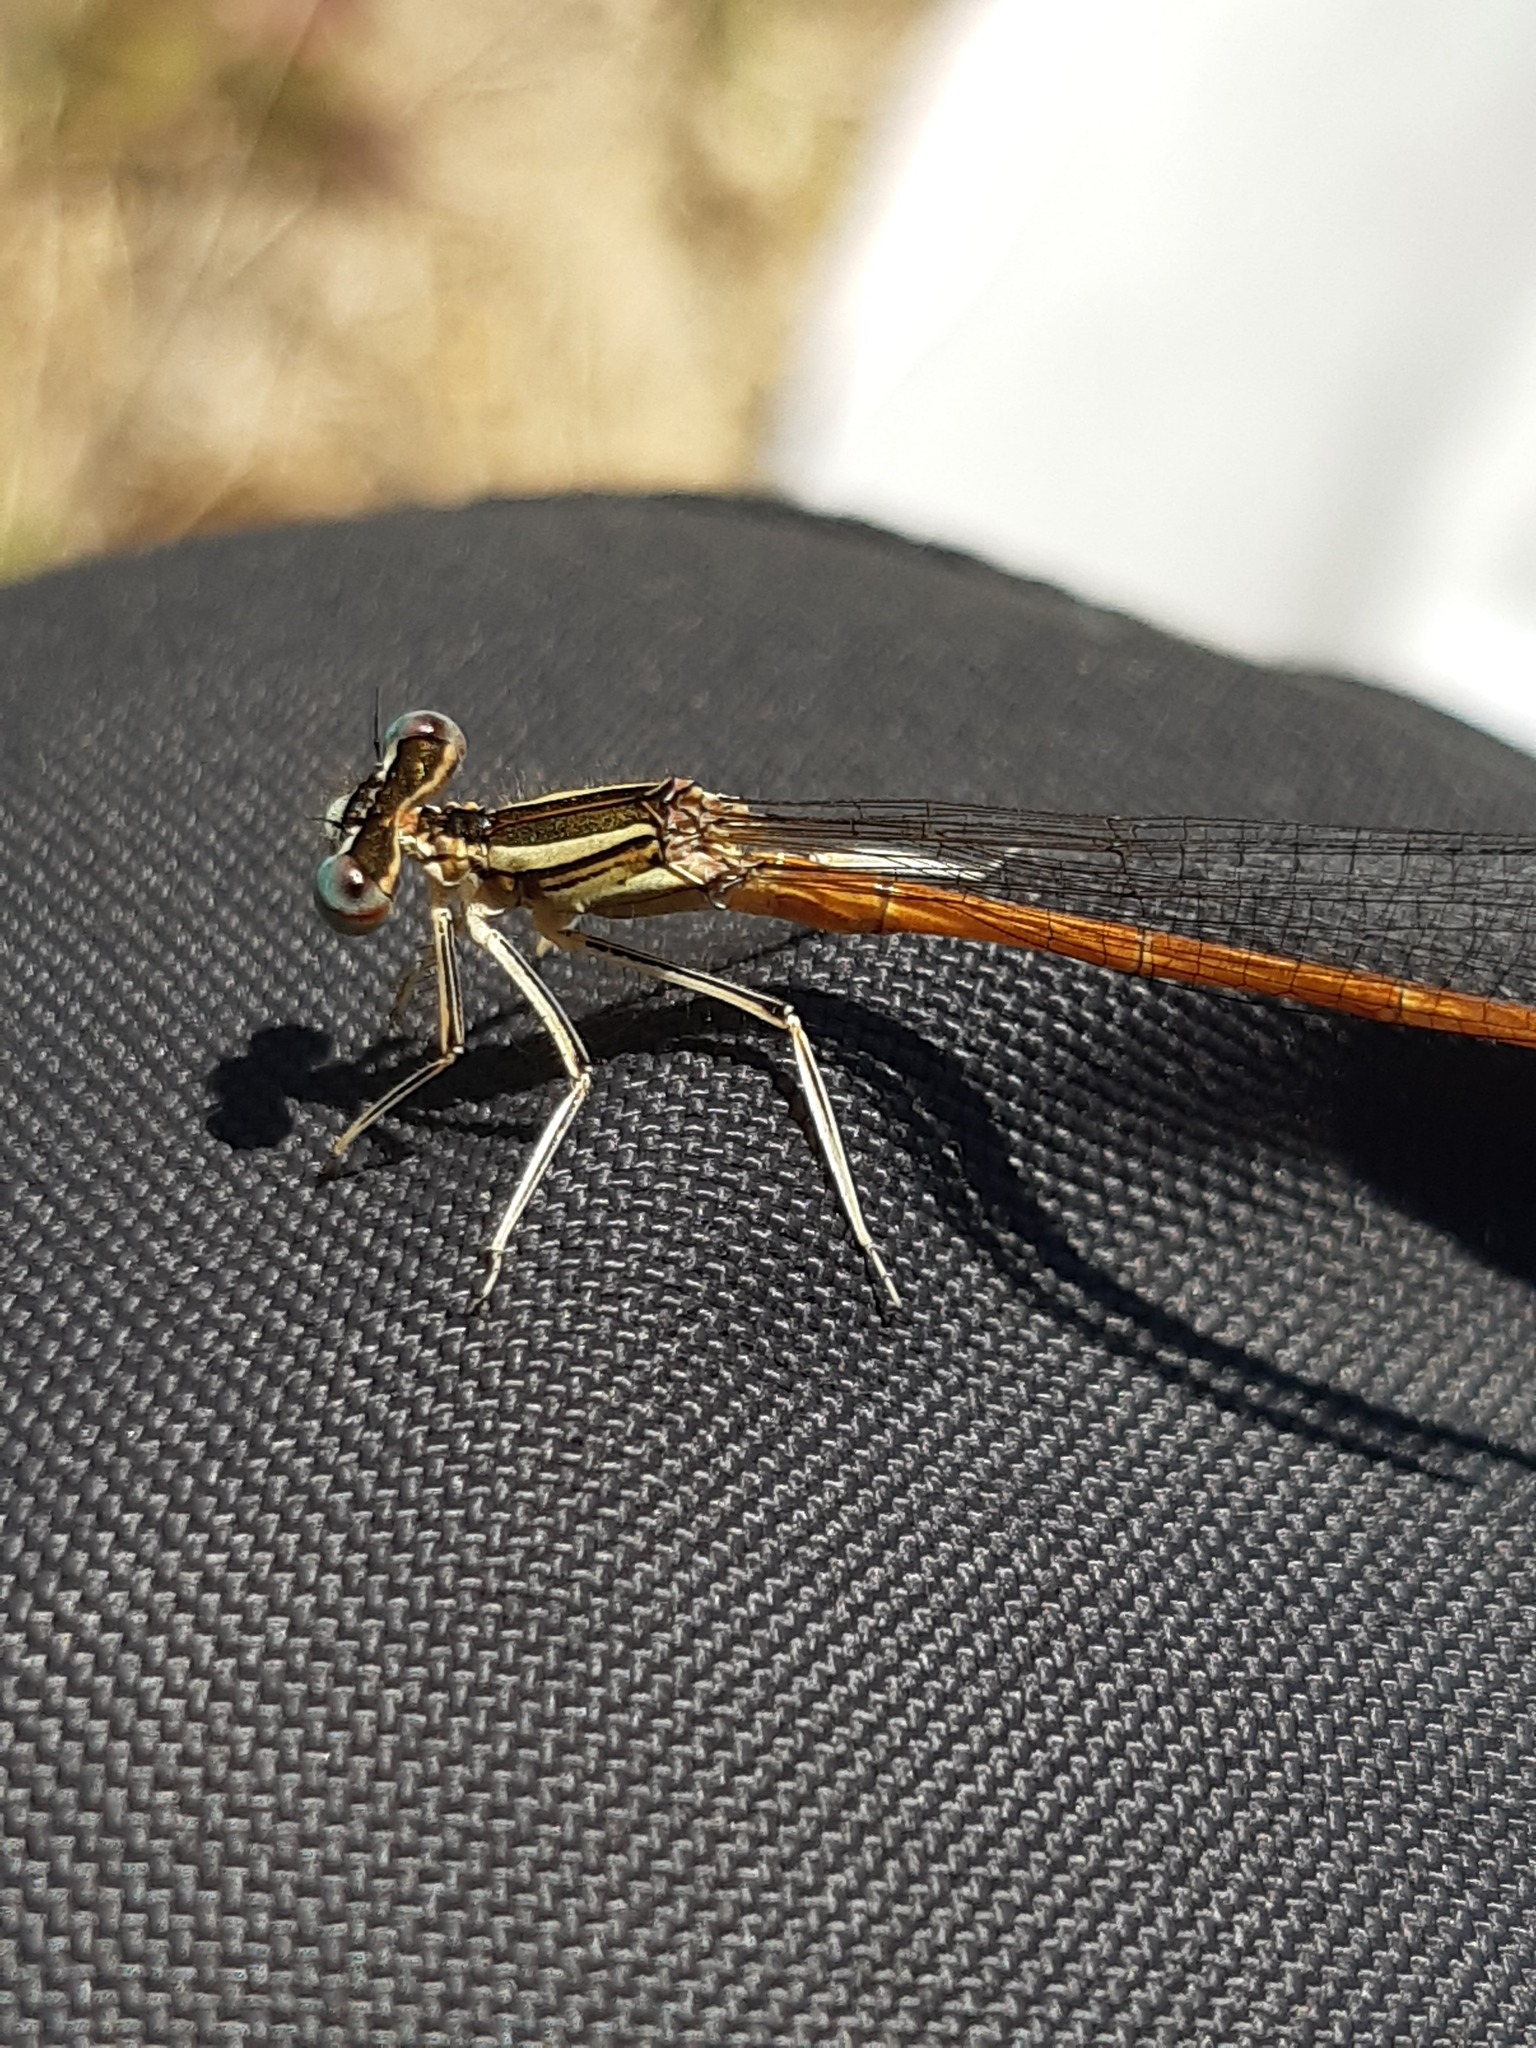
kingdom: Animalia
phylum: Arthropoda
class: Insecta
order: Odonata
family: Platycnemididae
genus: Platycnemis
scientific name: Platycnemis acutipennis
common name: Orange featherleg
